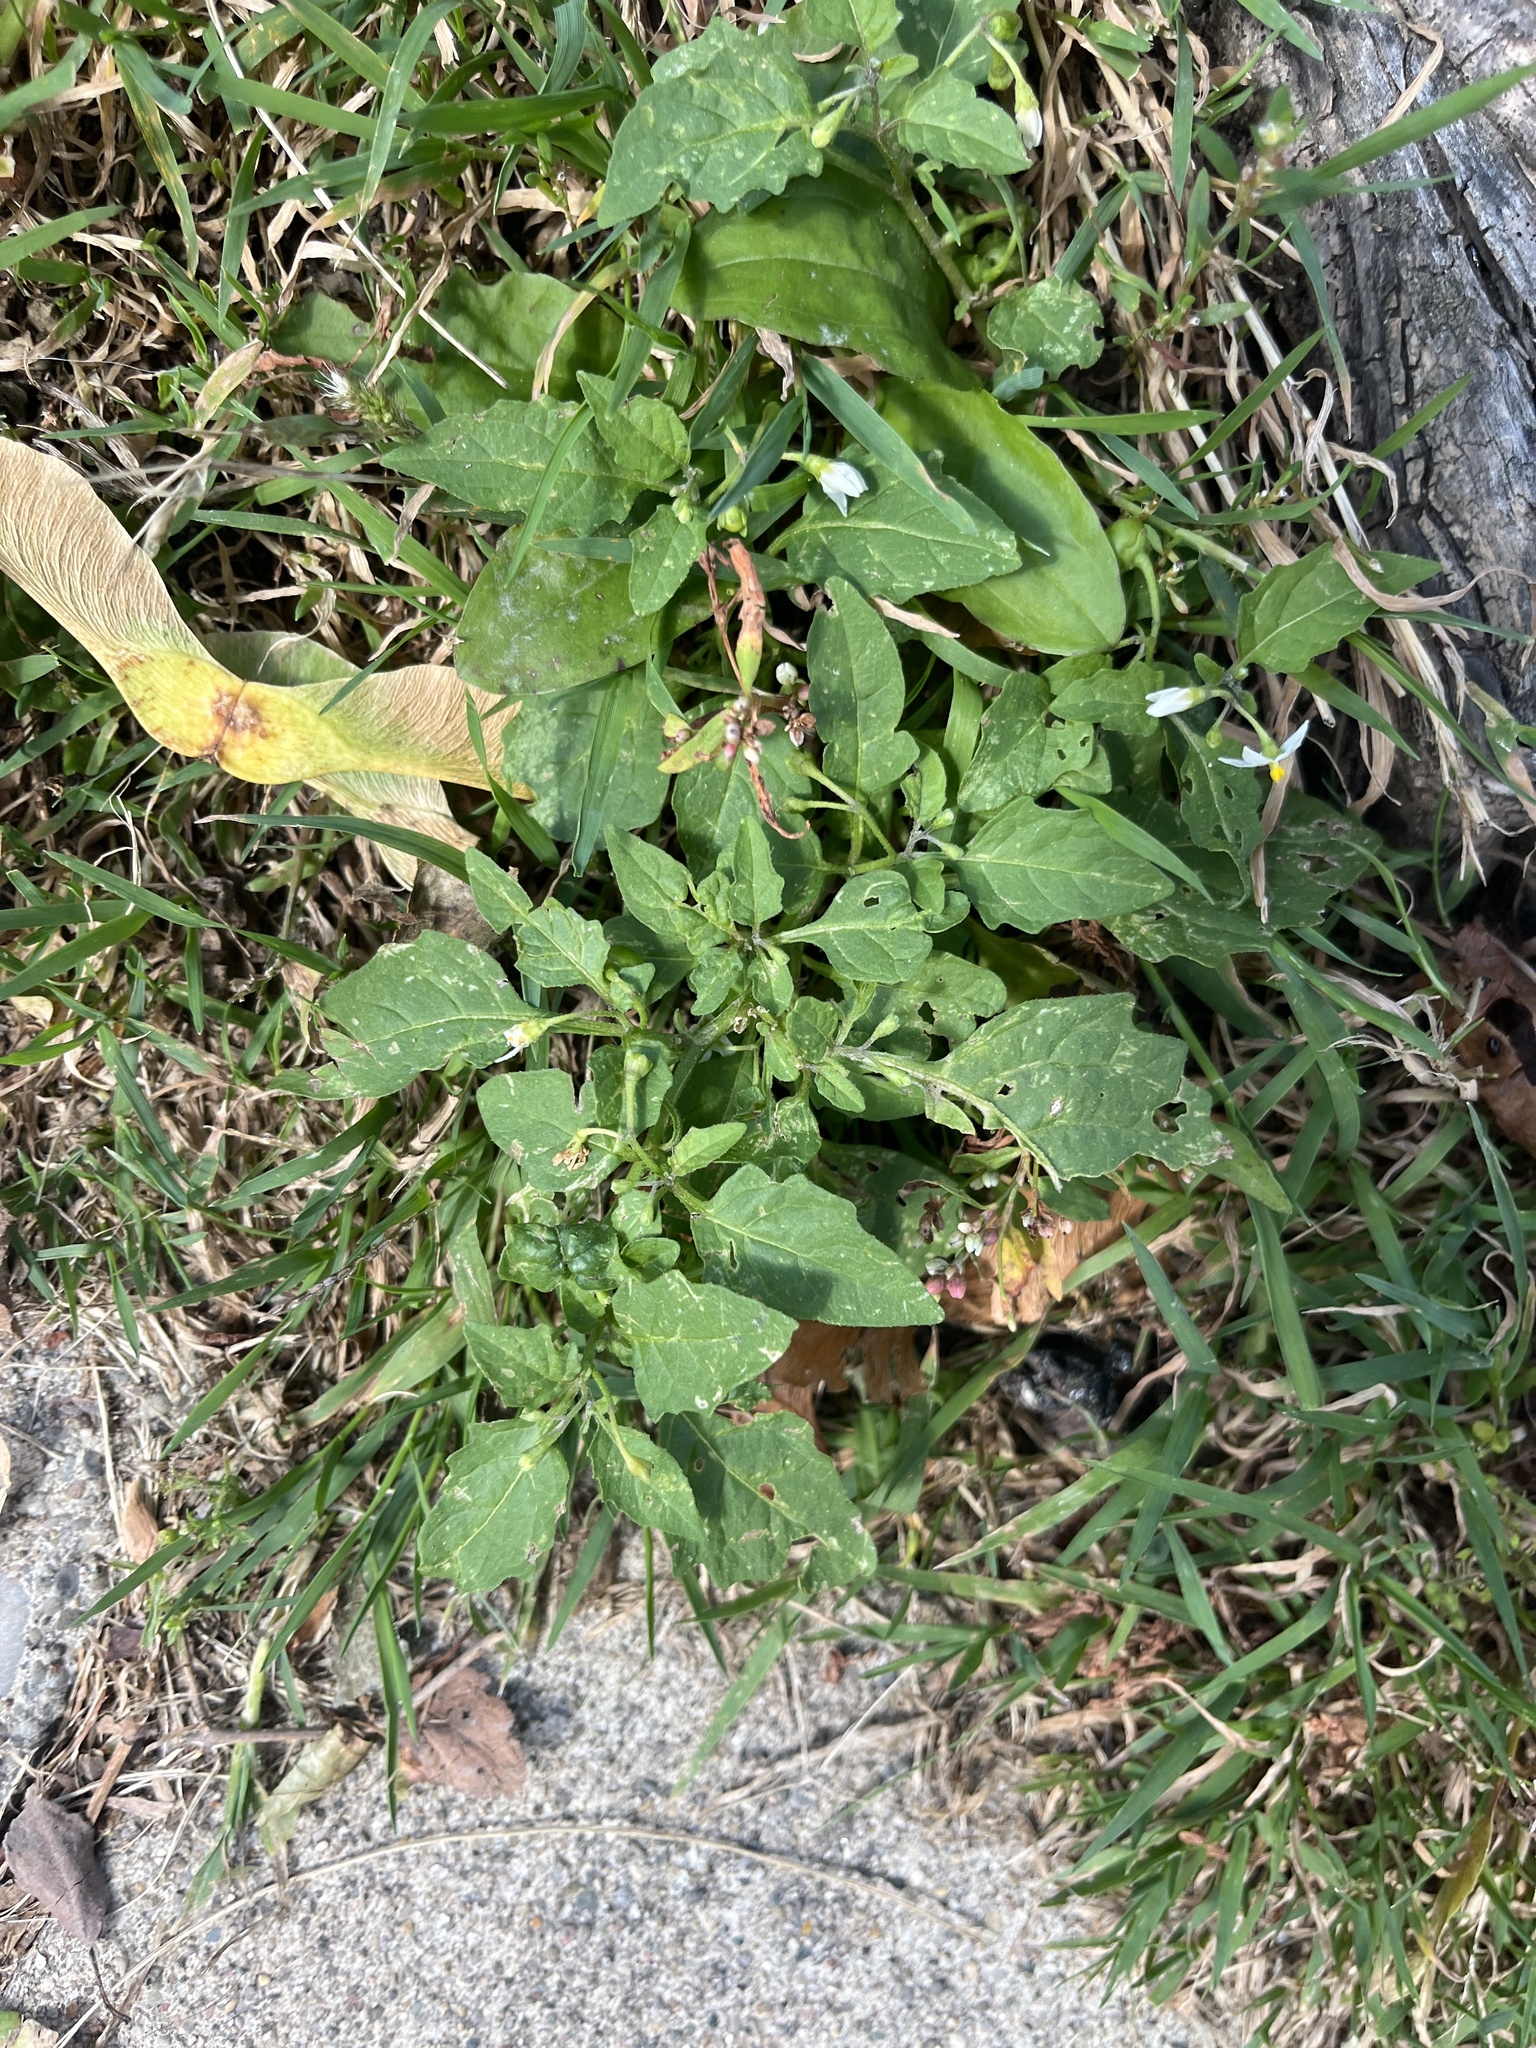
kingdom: Plantae
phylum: Tracheophyta
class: Magnoliopsida
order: Solanales
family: Solanaceae
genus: Solanum
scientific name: Solanum emulans
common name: Eastern black nightshade
